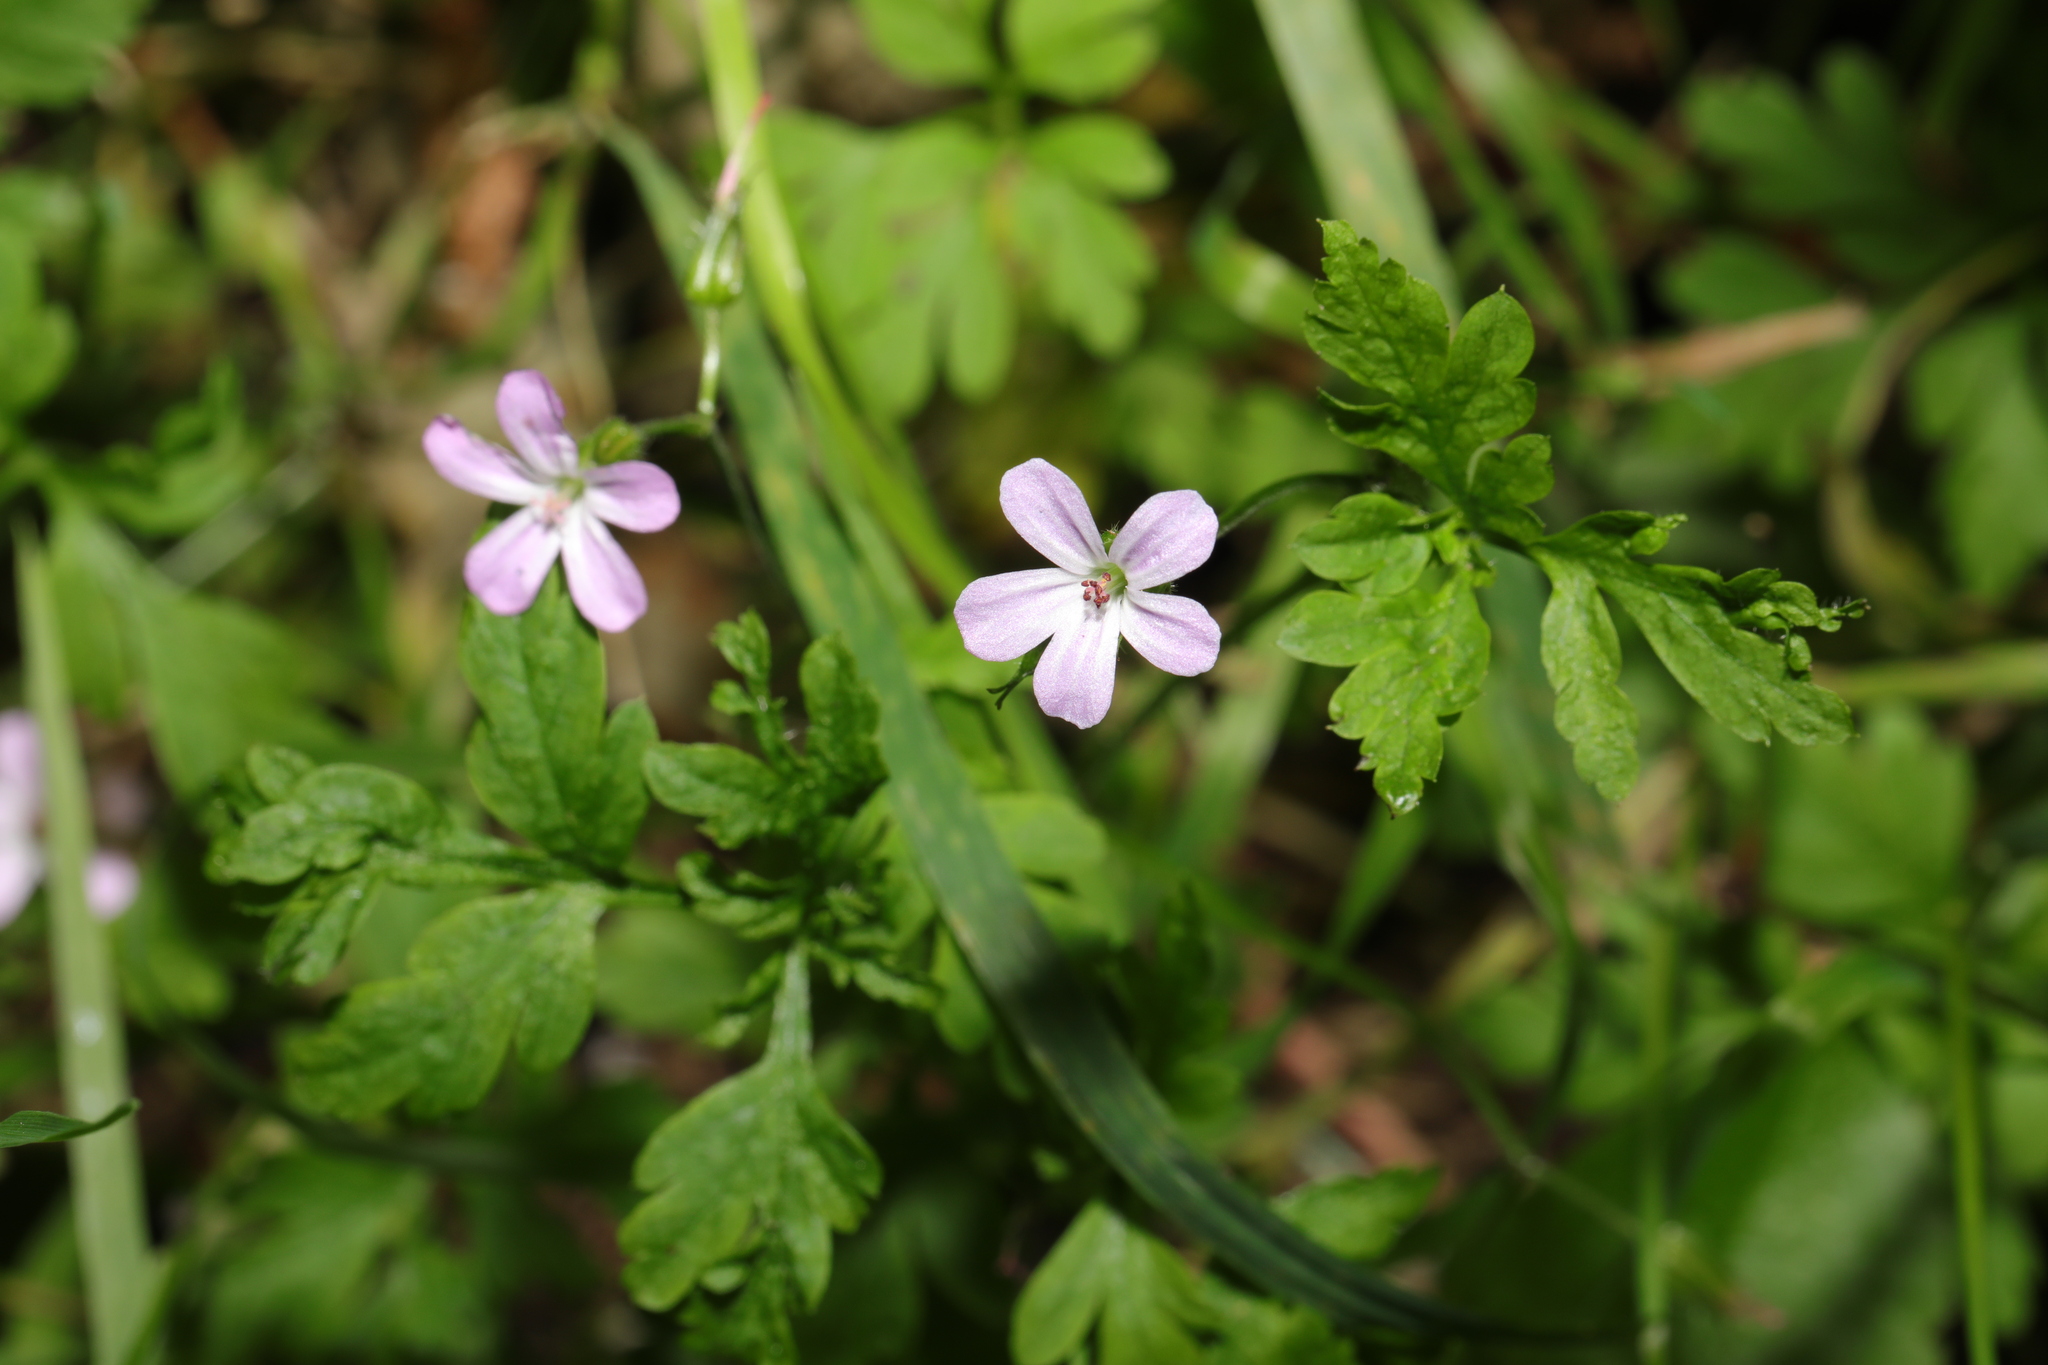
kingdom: Plantae
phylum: Tracheophyta
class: Magnoliopsida
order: Geraniales
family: Geraniaceae
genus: Geranium
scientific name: Geranium robertianum
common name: Herb-robert
